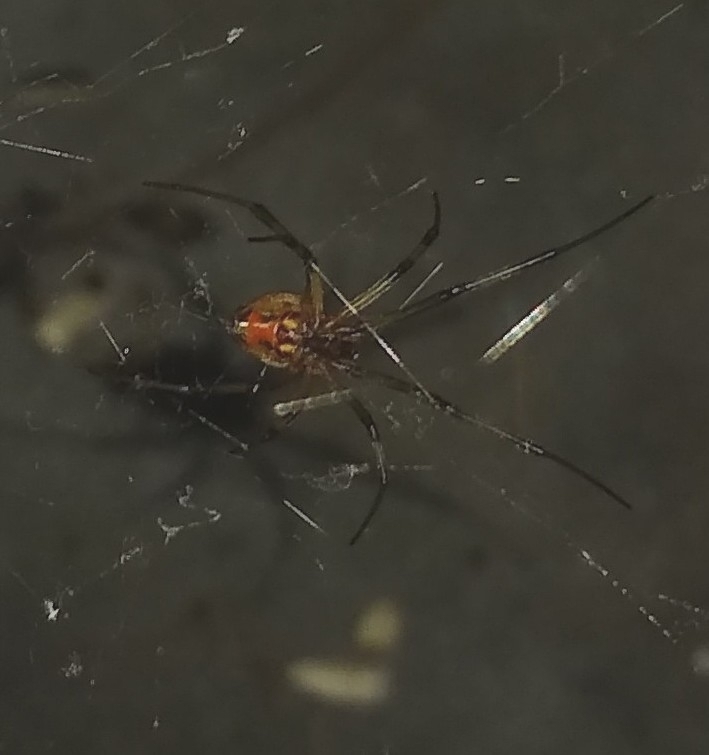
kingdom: Animalia
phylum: Arthropoda
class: Arachnida
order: Araneae
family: Theridiidae
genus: Latrodectus
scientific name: Latrodectus geometricus
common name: Brown widow spider
